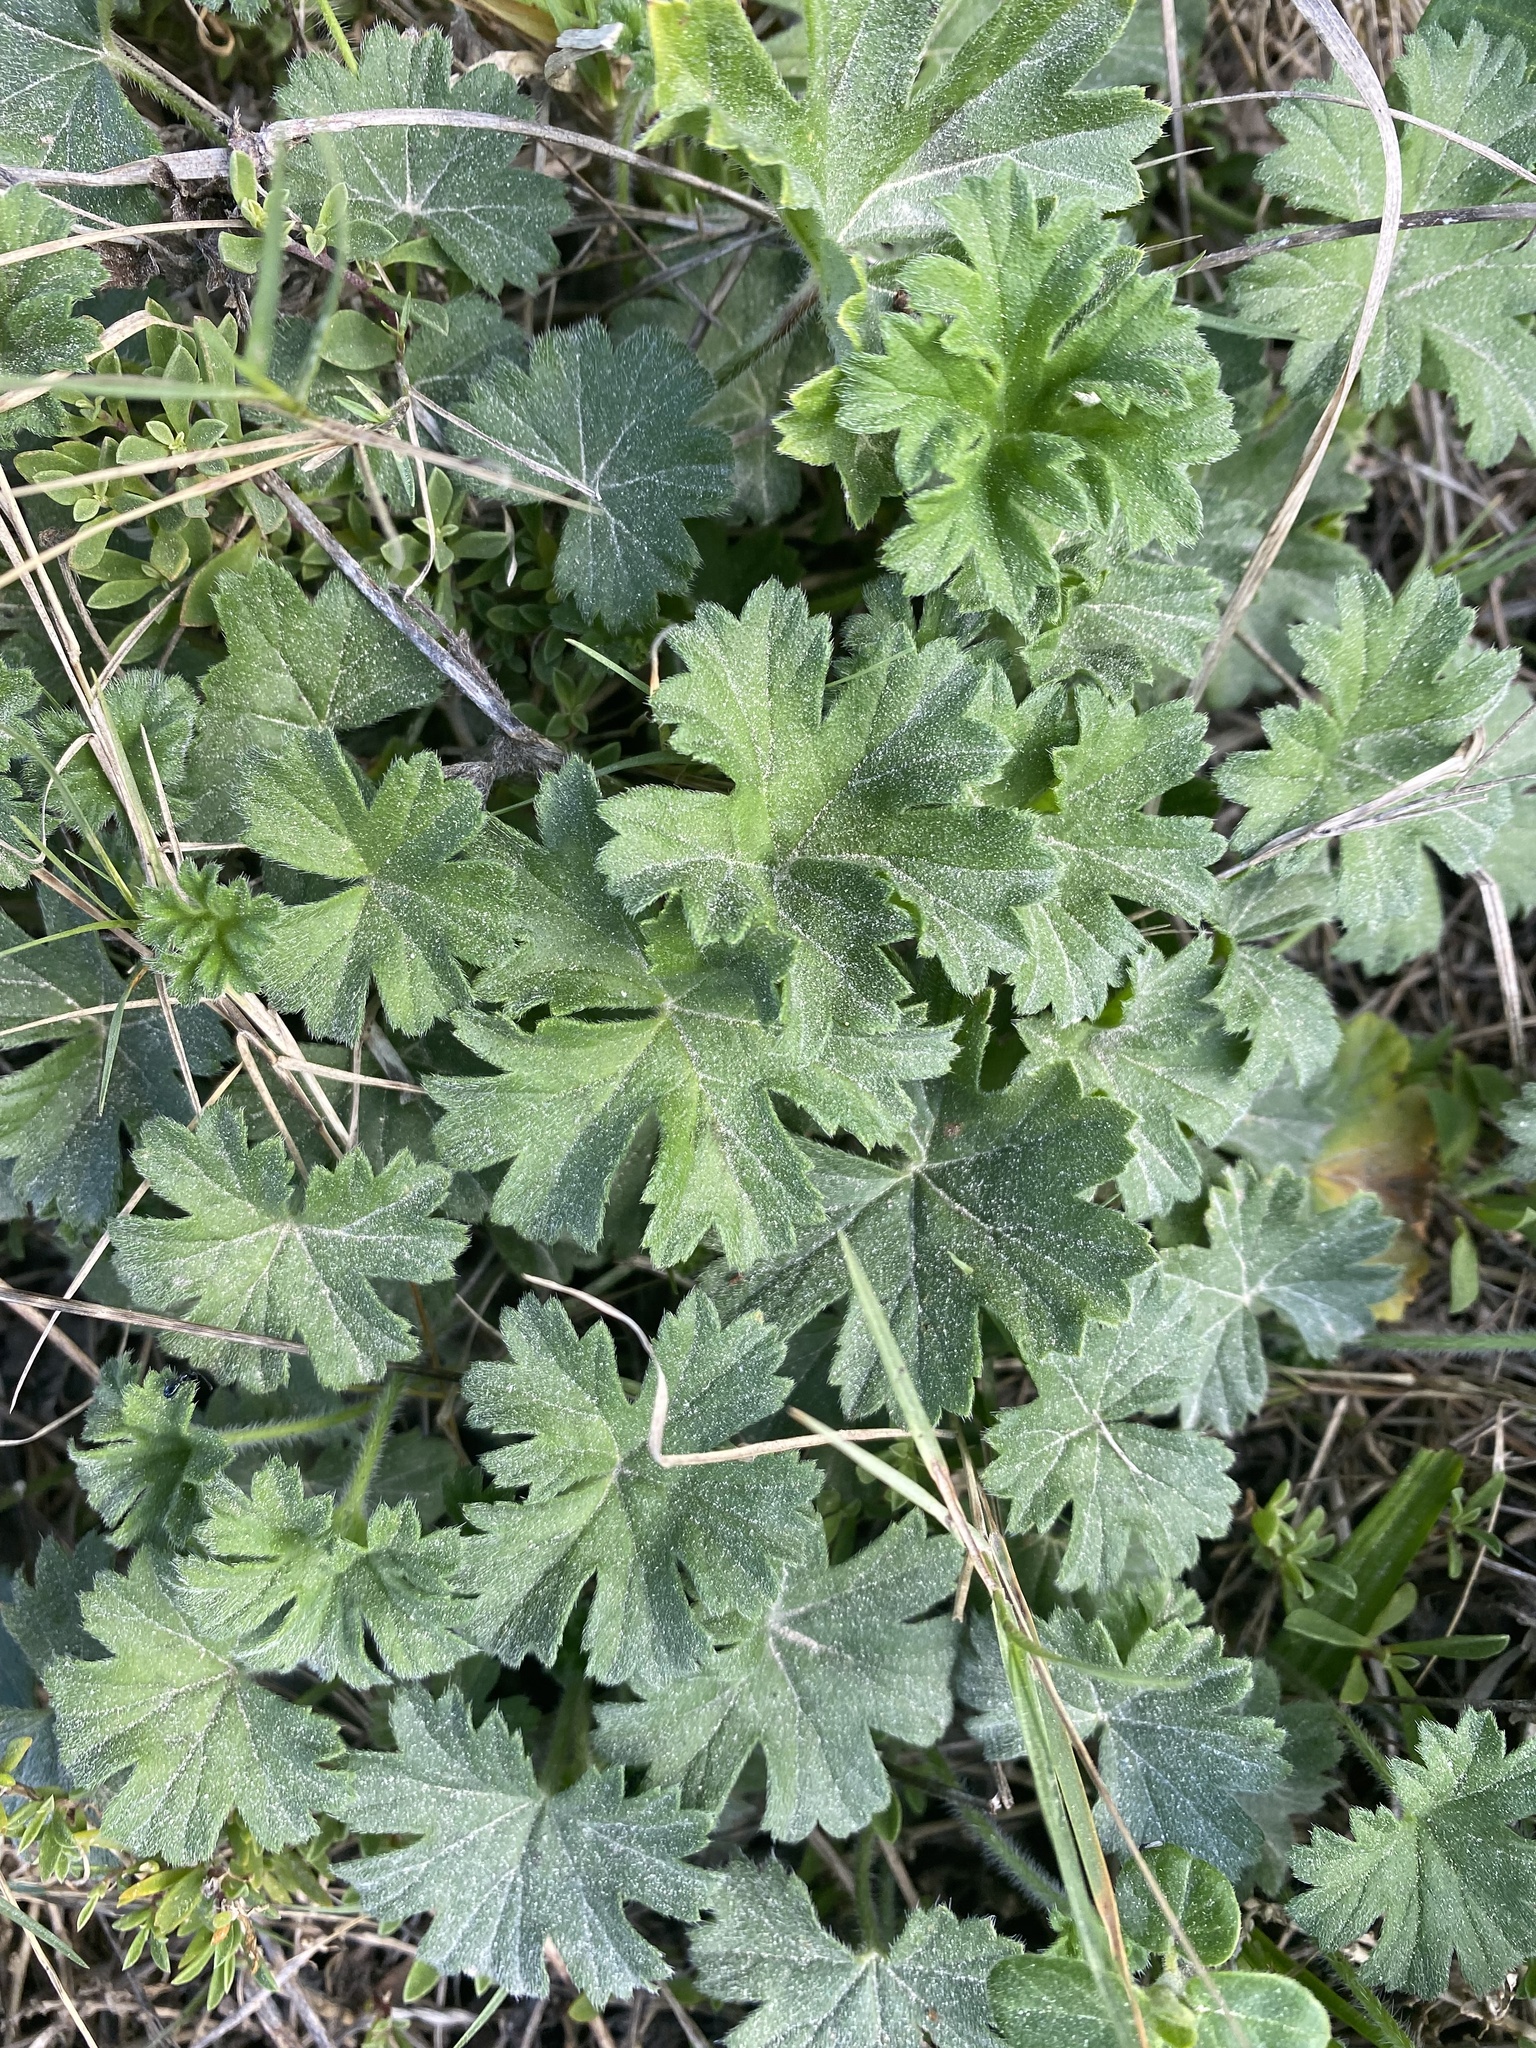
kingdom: Plantae
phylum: Tracheophyta
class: Magnoliopsida
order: Geraniales
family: Geraniaceae
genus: Pelargonium
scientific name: Pelargonium alchemilloides
